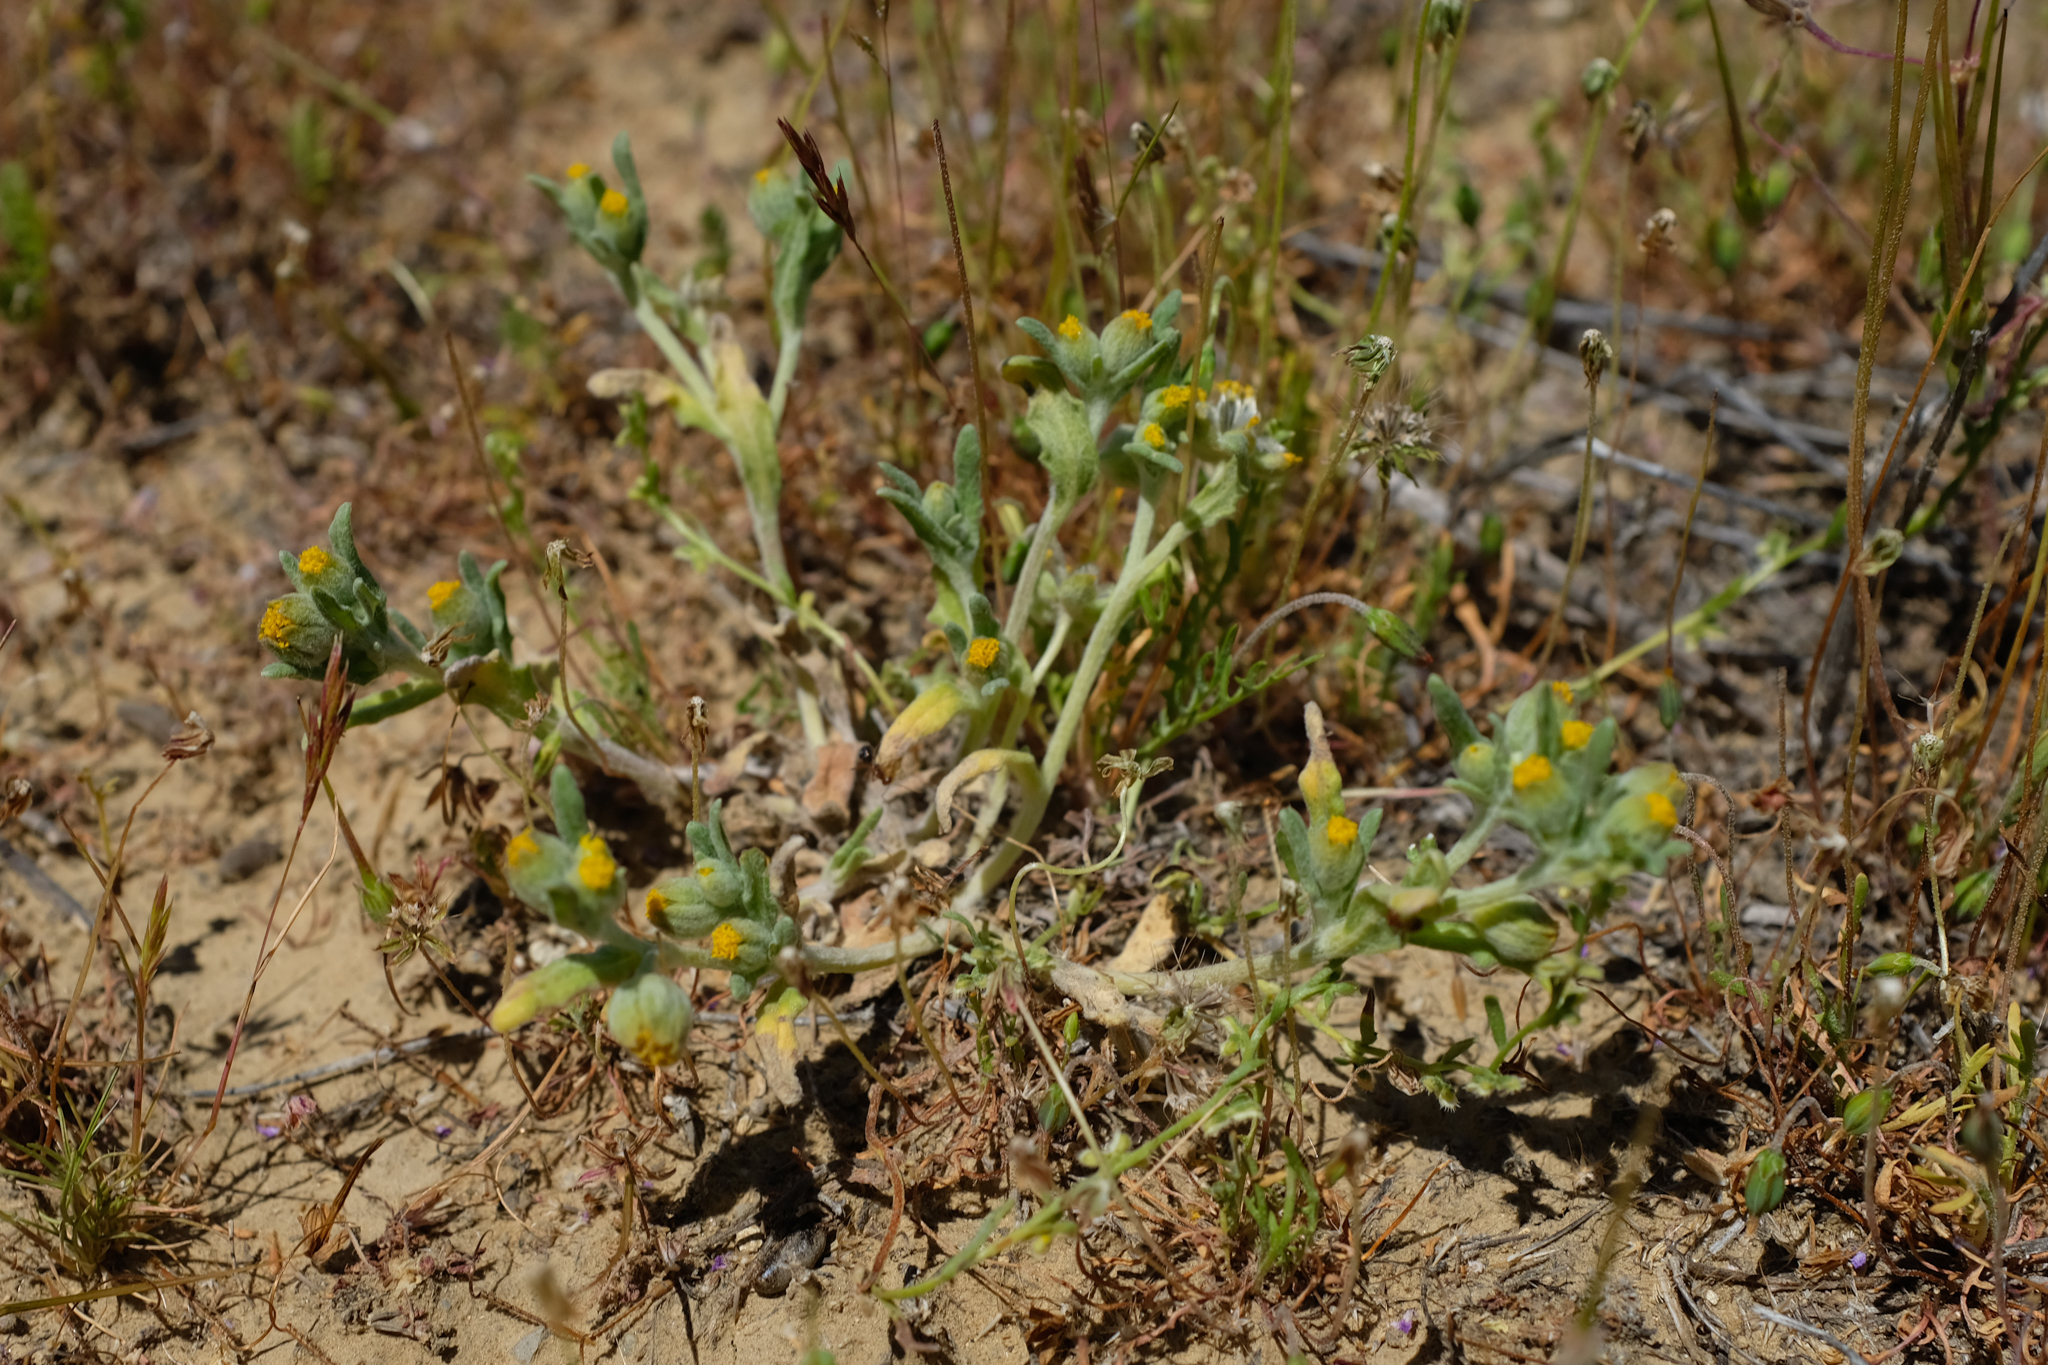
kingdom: Plantae
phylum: Tracheophyta
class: Magnoliopsida
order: Asterales
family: Asteraceae
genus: Monolopia
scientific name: Monolopia congdonii
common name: San joaquin woolly-threads
